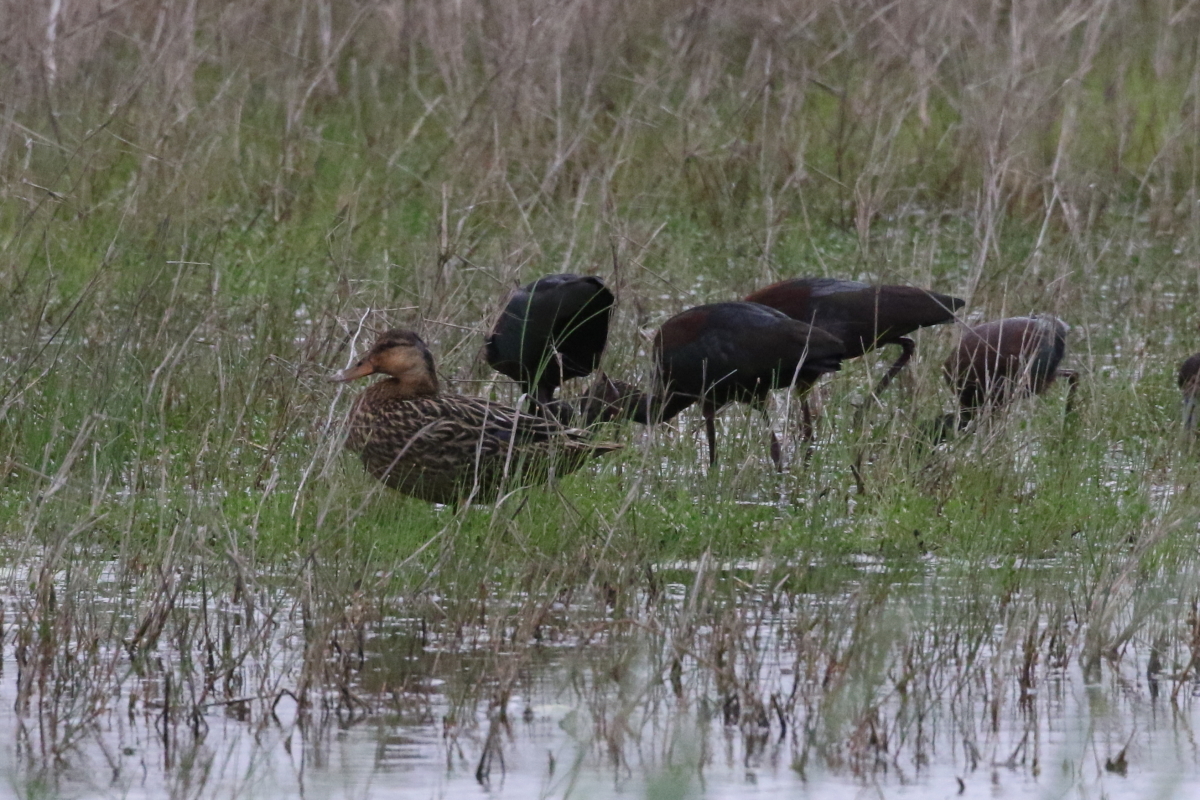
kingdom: Animalia
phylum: Chordata
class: Aves
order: Anseriformes
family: Anatidae
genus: Anas
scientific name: Anas fulvigula
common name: Mottled duck
